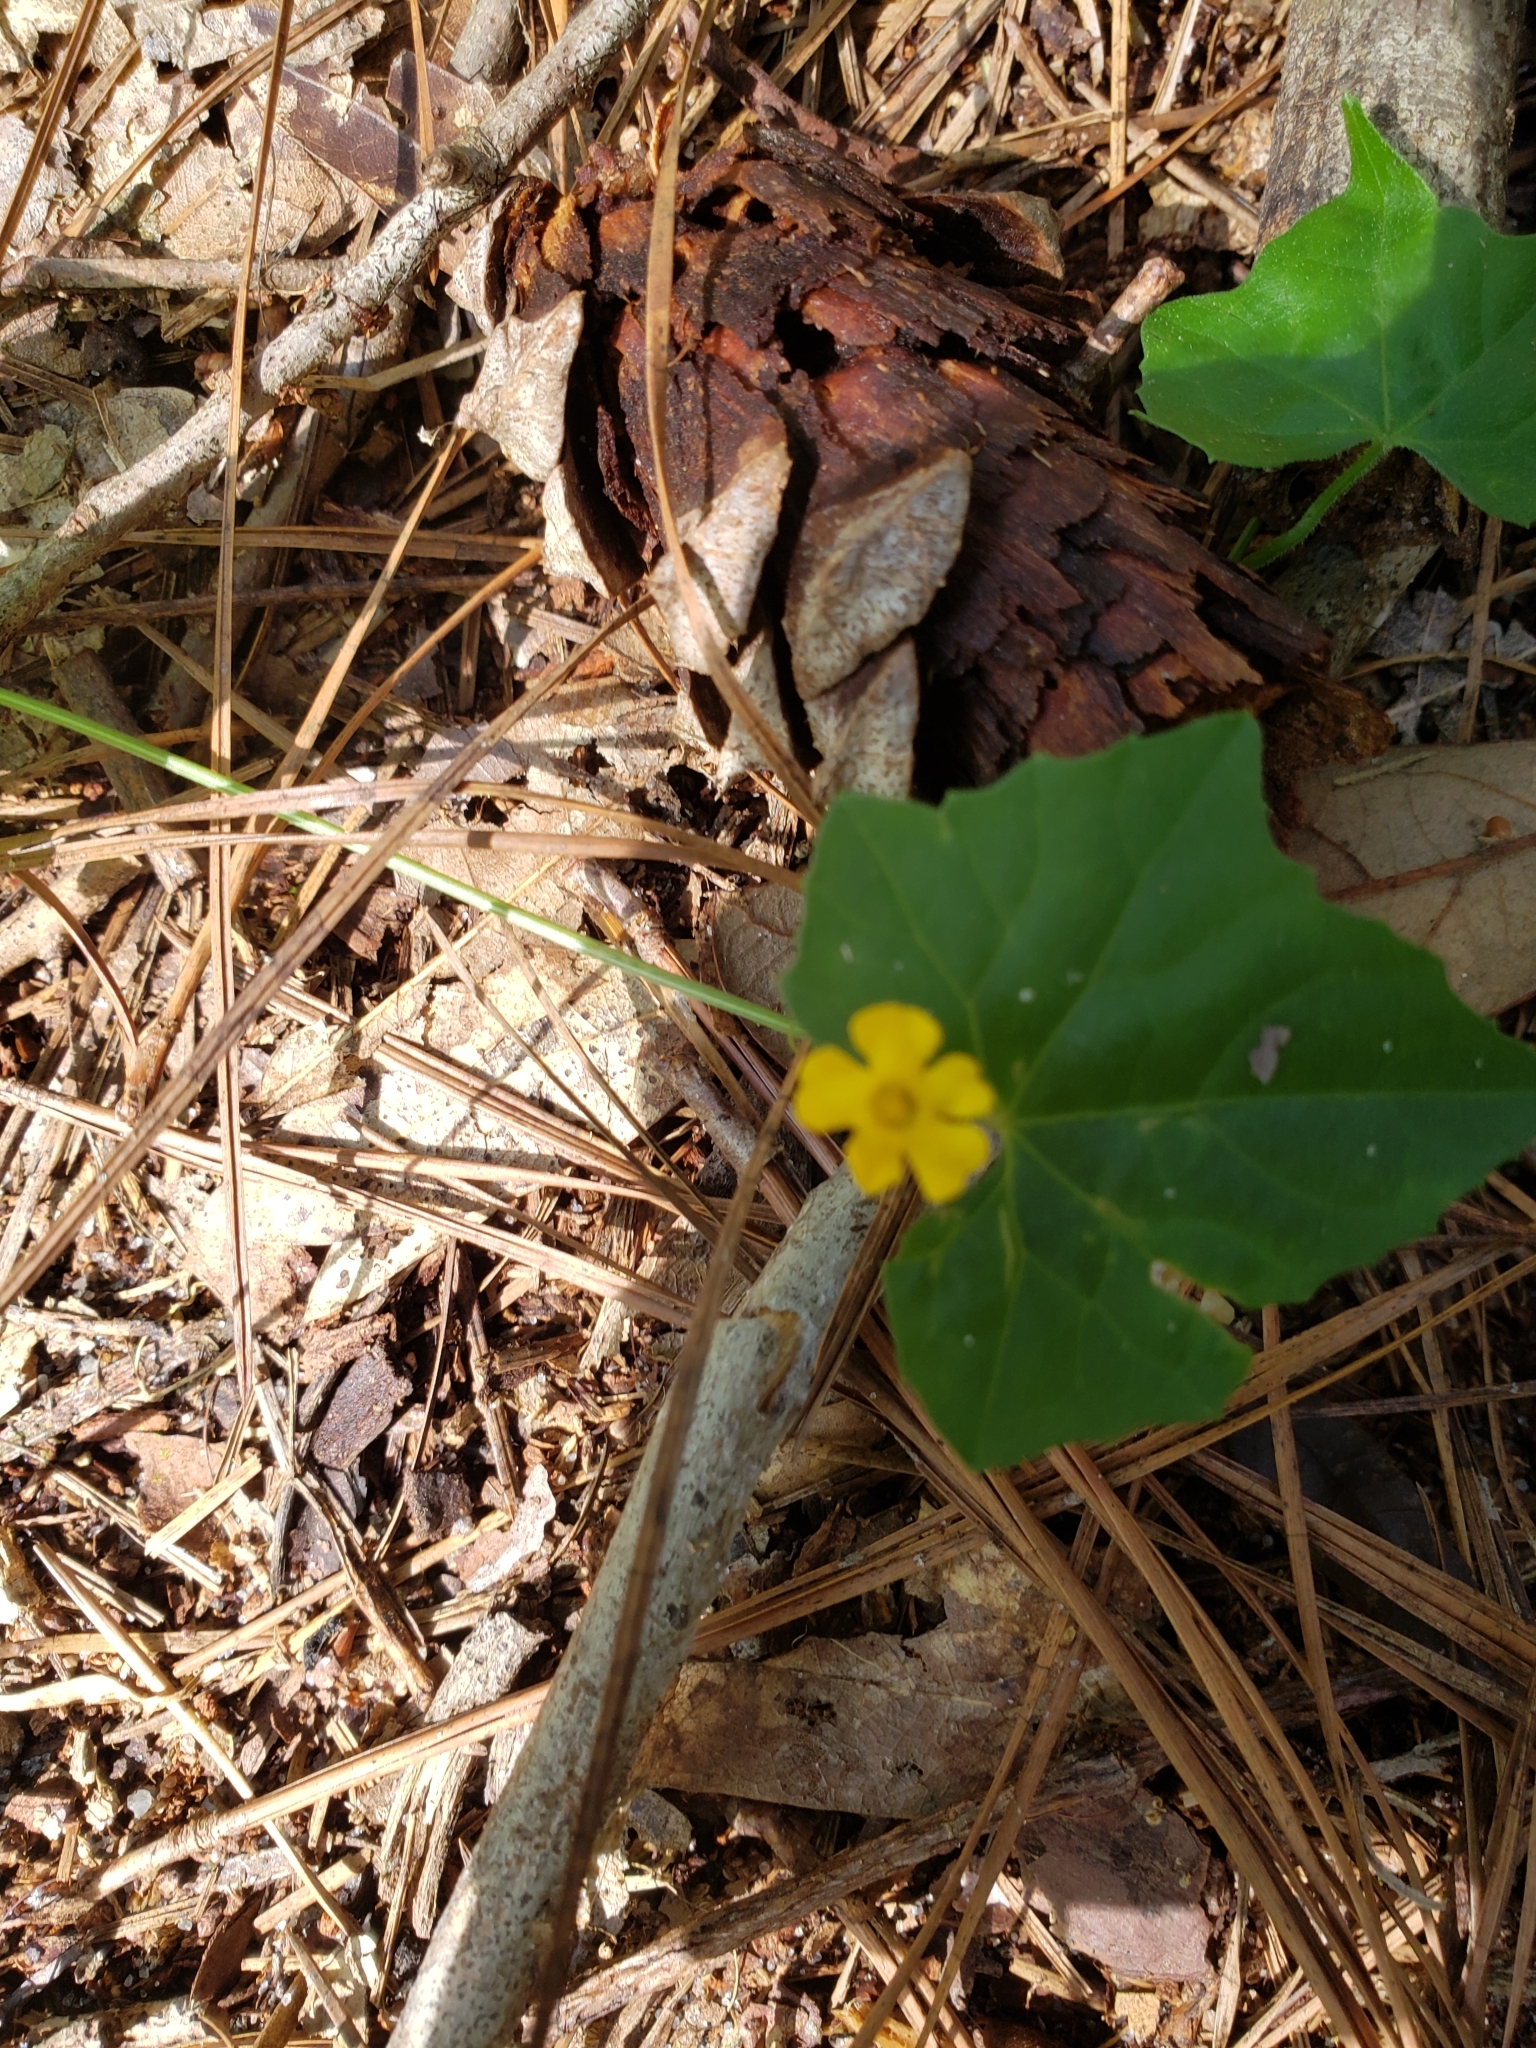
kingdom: Plantae
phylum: Tracheophyta
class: Magnoliopsida
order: Cucurbitales
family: Cucurbitaceae
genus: Melothria
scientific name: Melothria pendula
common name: Creeping-cucumber
